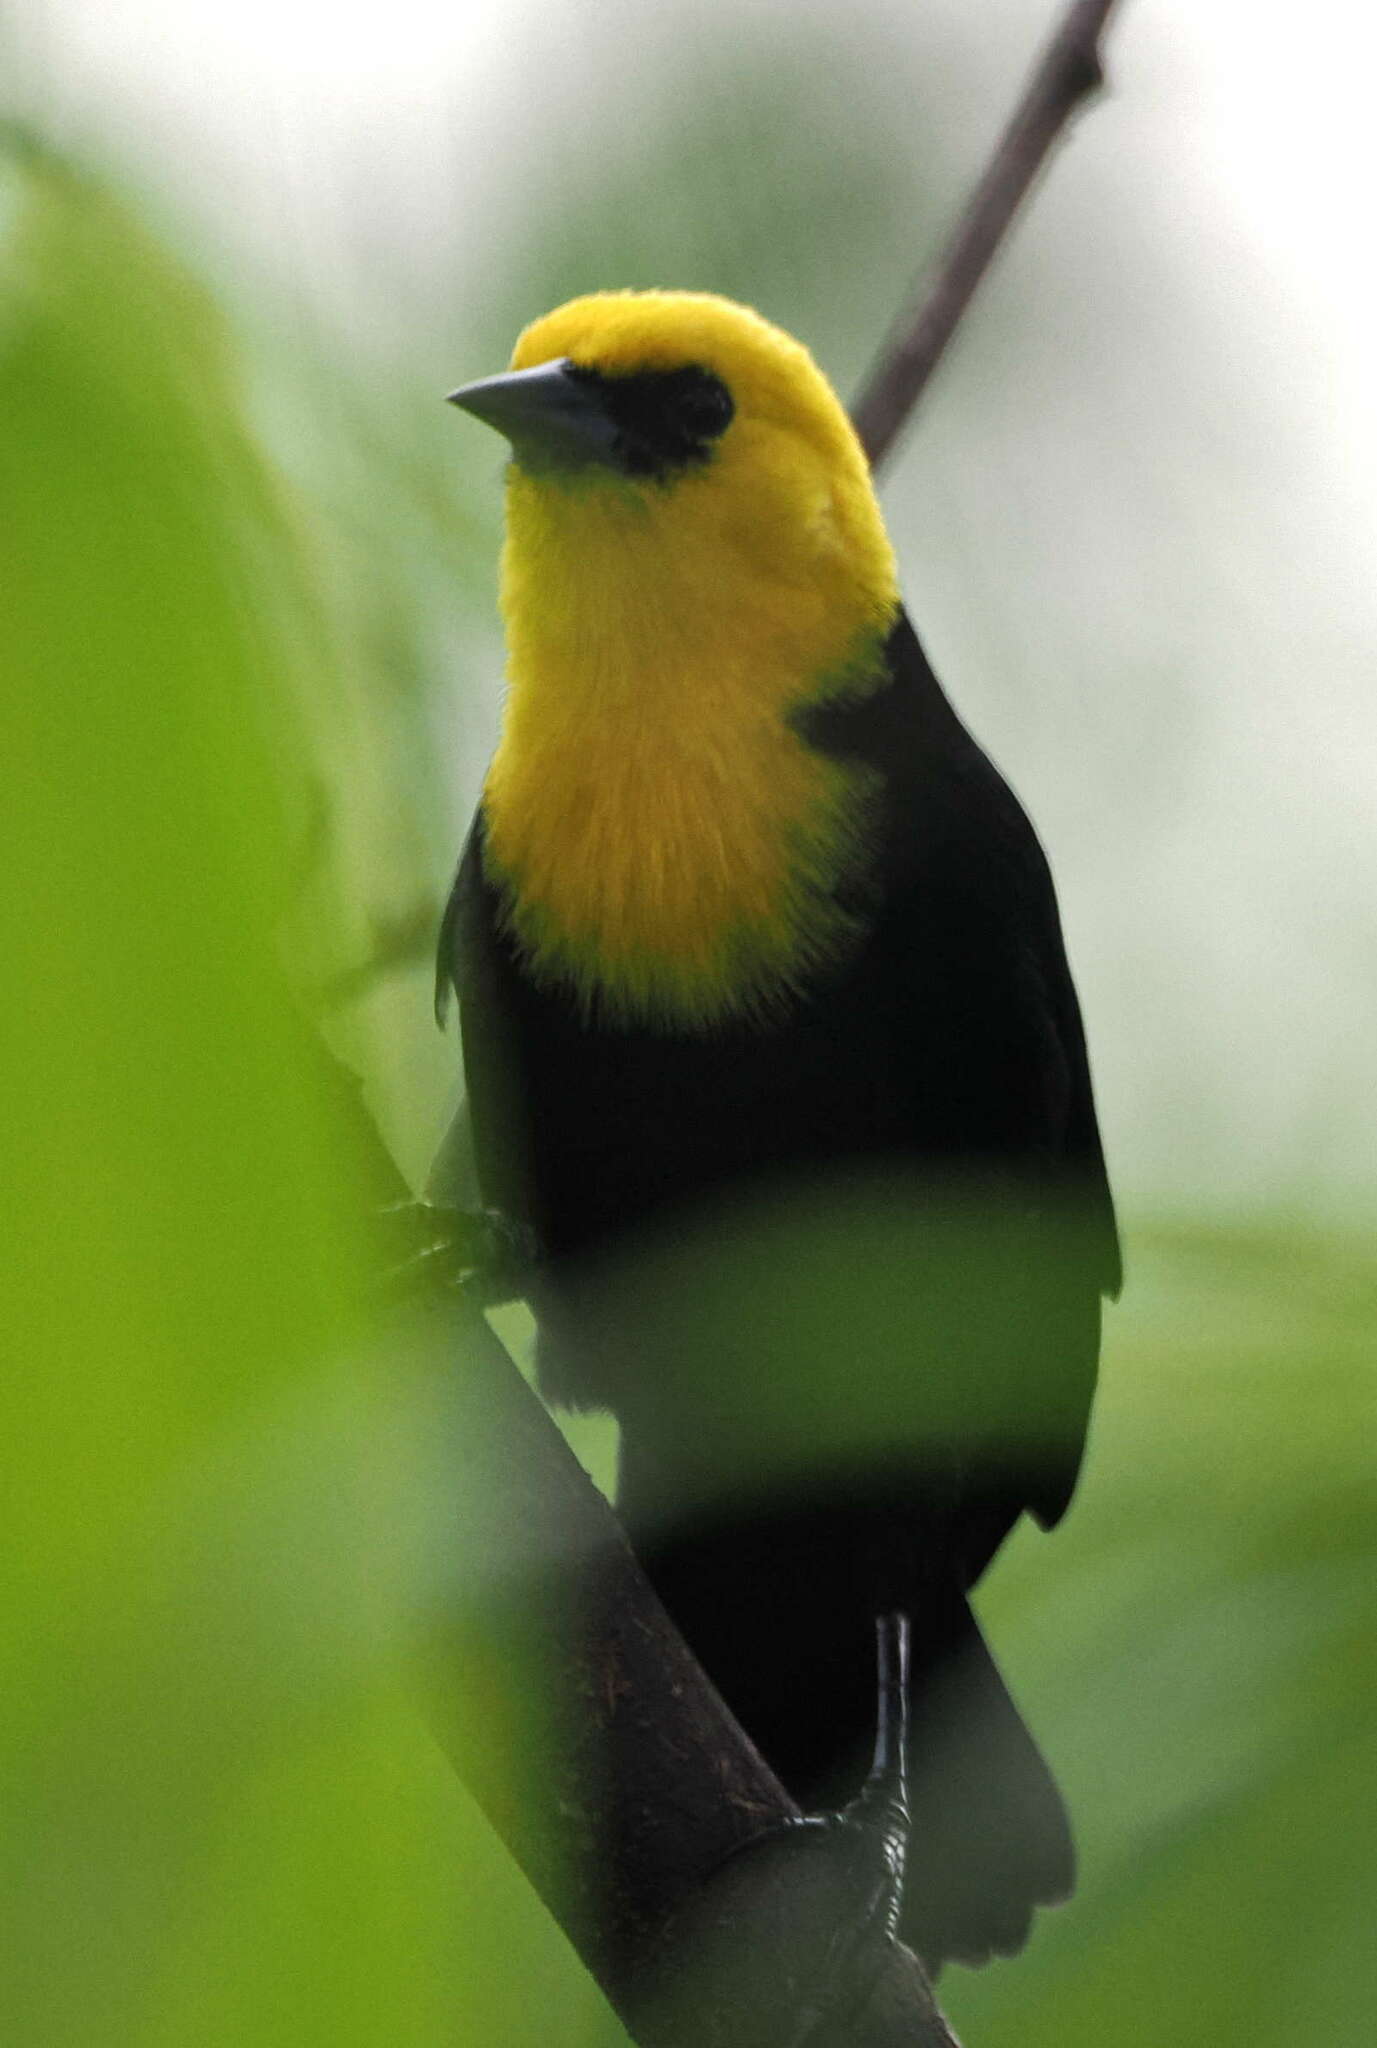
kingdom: Animalia
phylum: Chordata
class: Aves
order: Passeriformes
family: Icteridae
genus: Chrysomus
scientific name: Chrysomus icterocephalus
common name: Yellow-hooded blackbird
